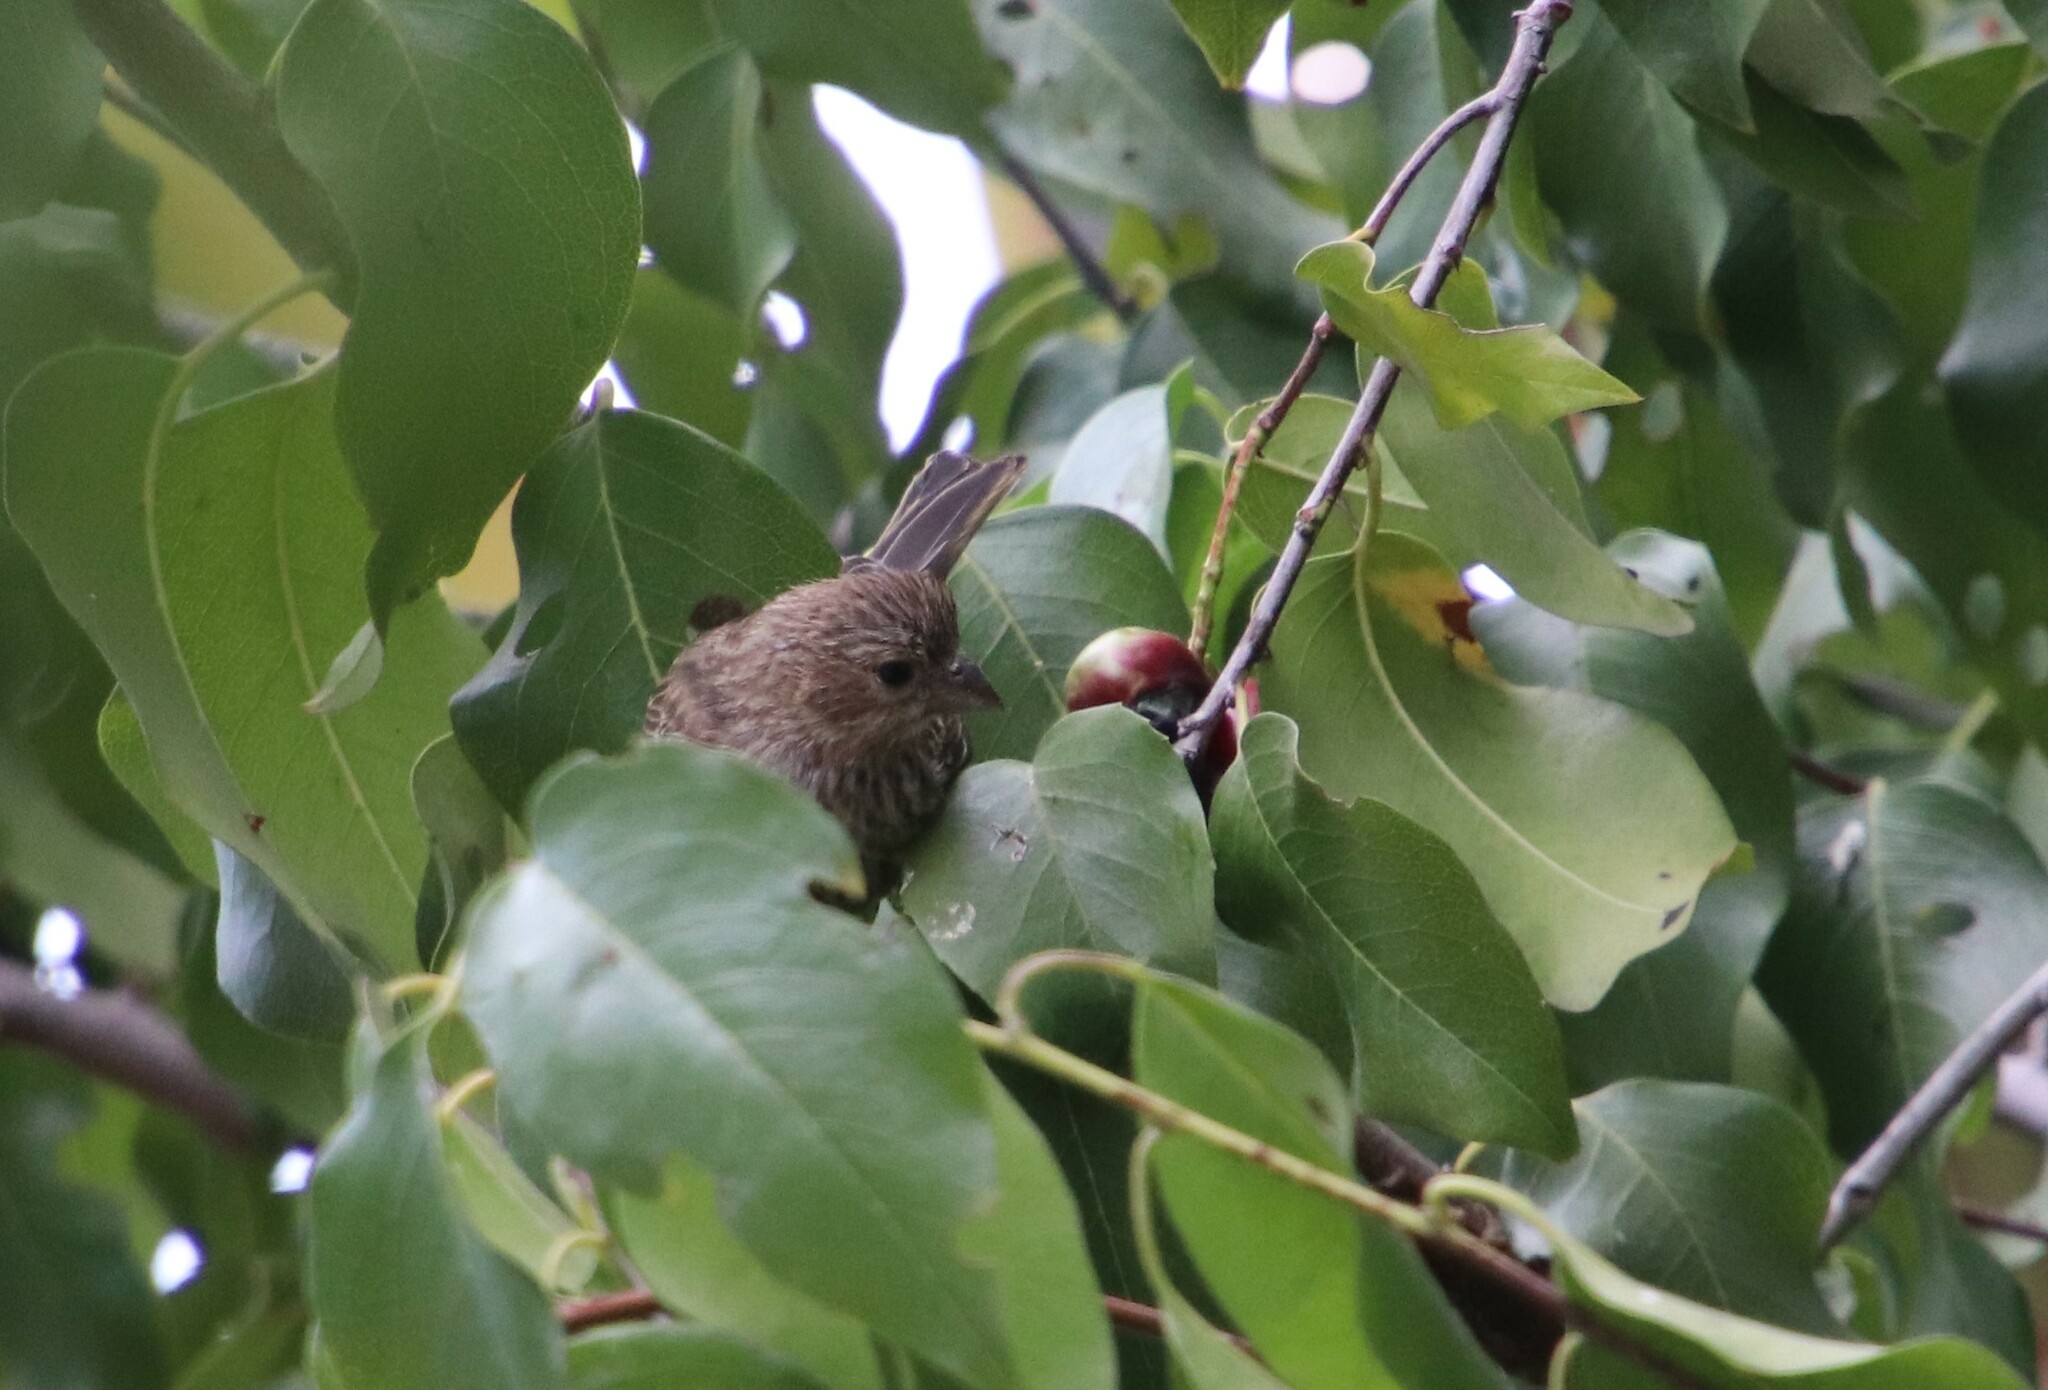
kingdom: Animalia
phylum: Chordata
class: Aves
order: Passeriformes
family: Fringillidae
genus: Haemorhous
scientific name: Haemorhous mexicanus
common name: House finch
